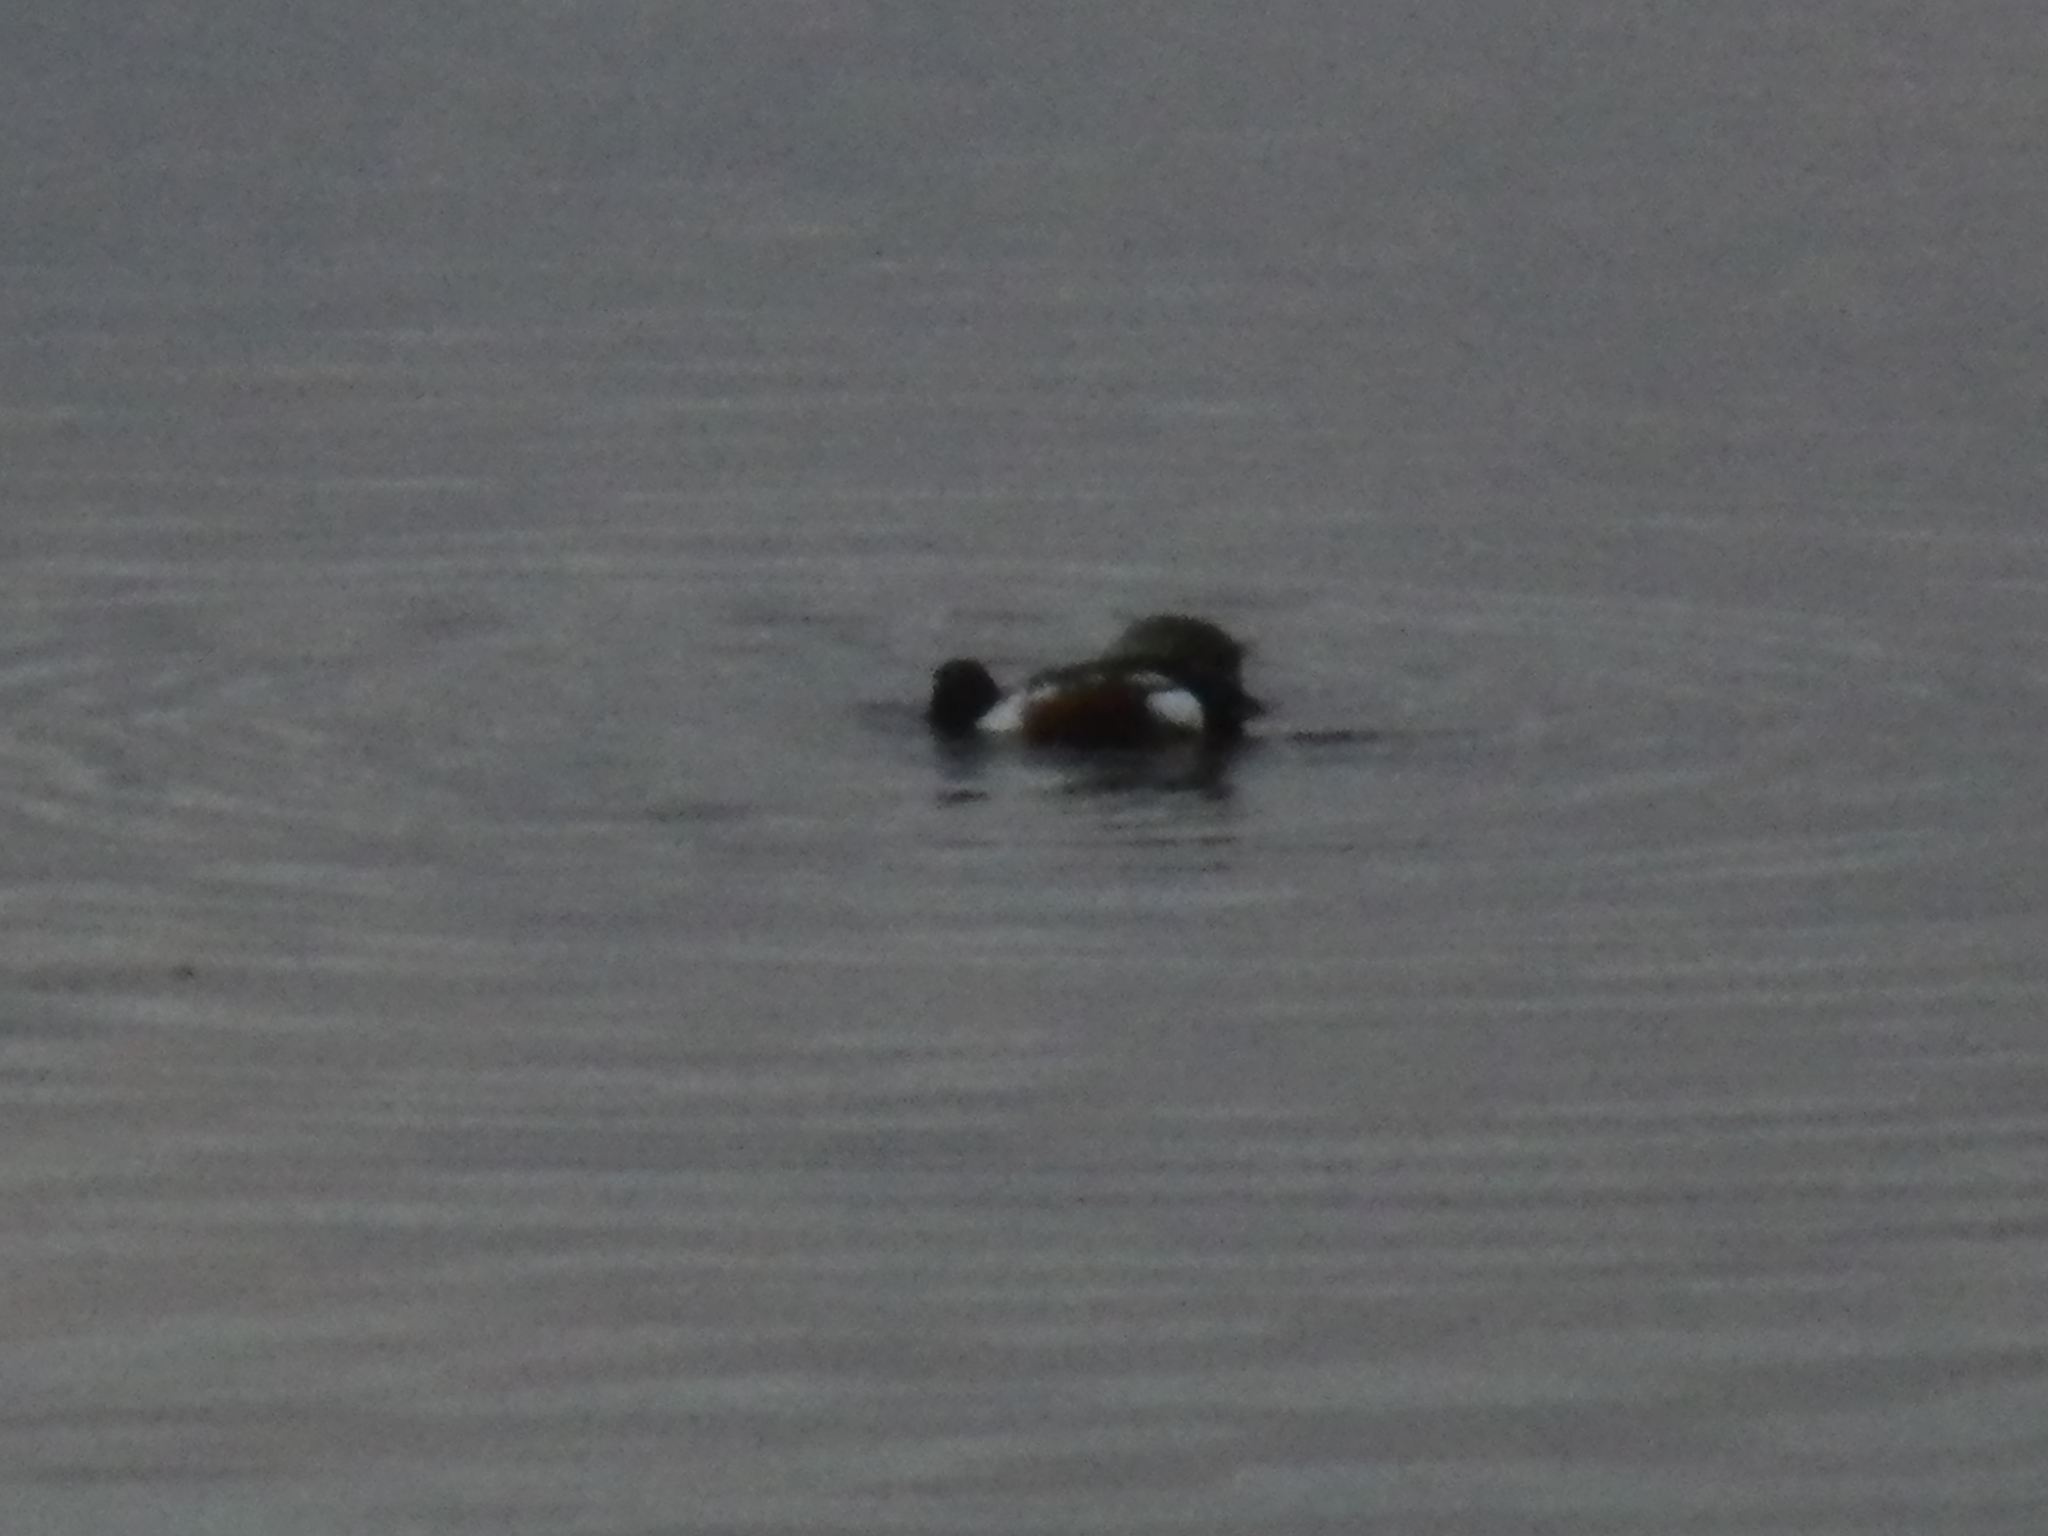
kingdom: Animalia
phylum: Chordata
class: Aves
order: Anseriformes
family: Anatidae
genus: Spatula
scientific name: Spatula clypeata
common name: Northern shoveler
